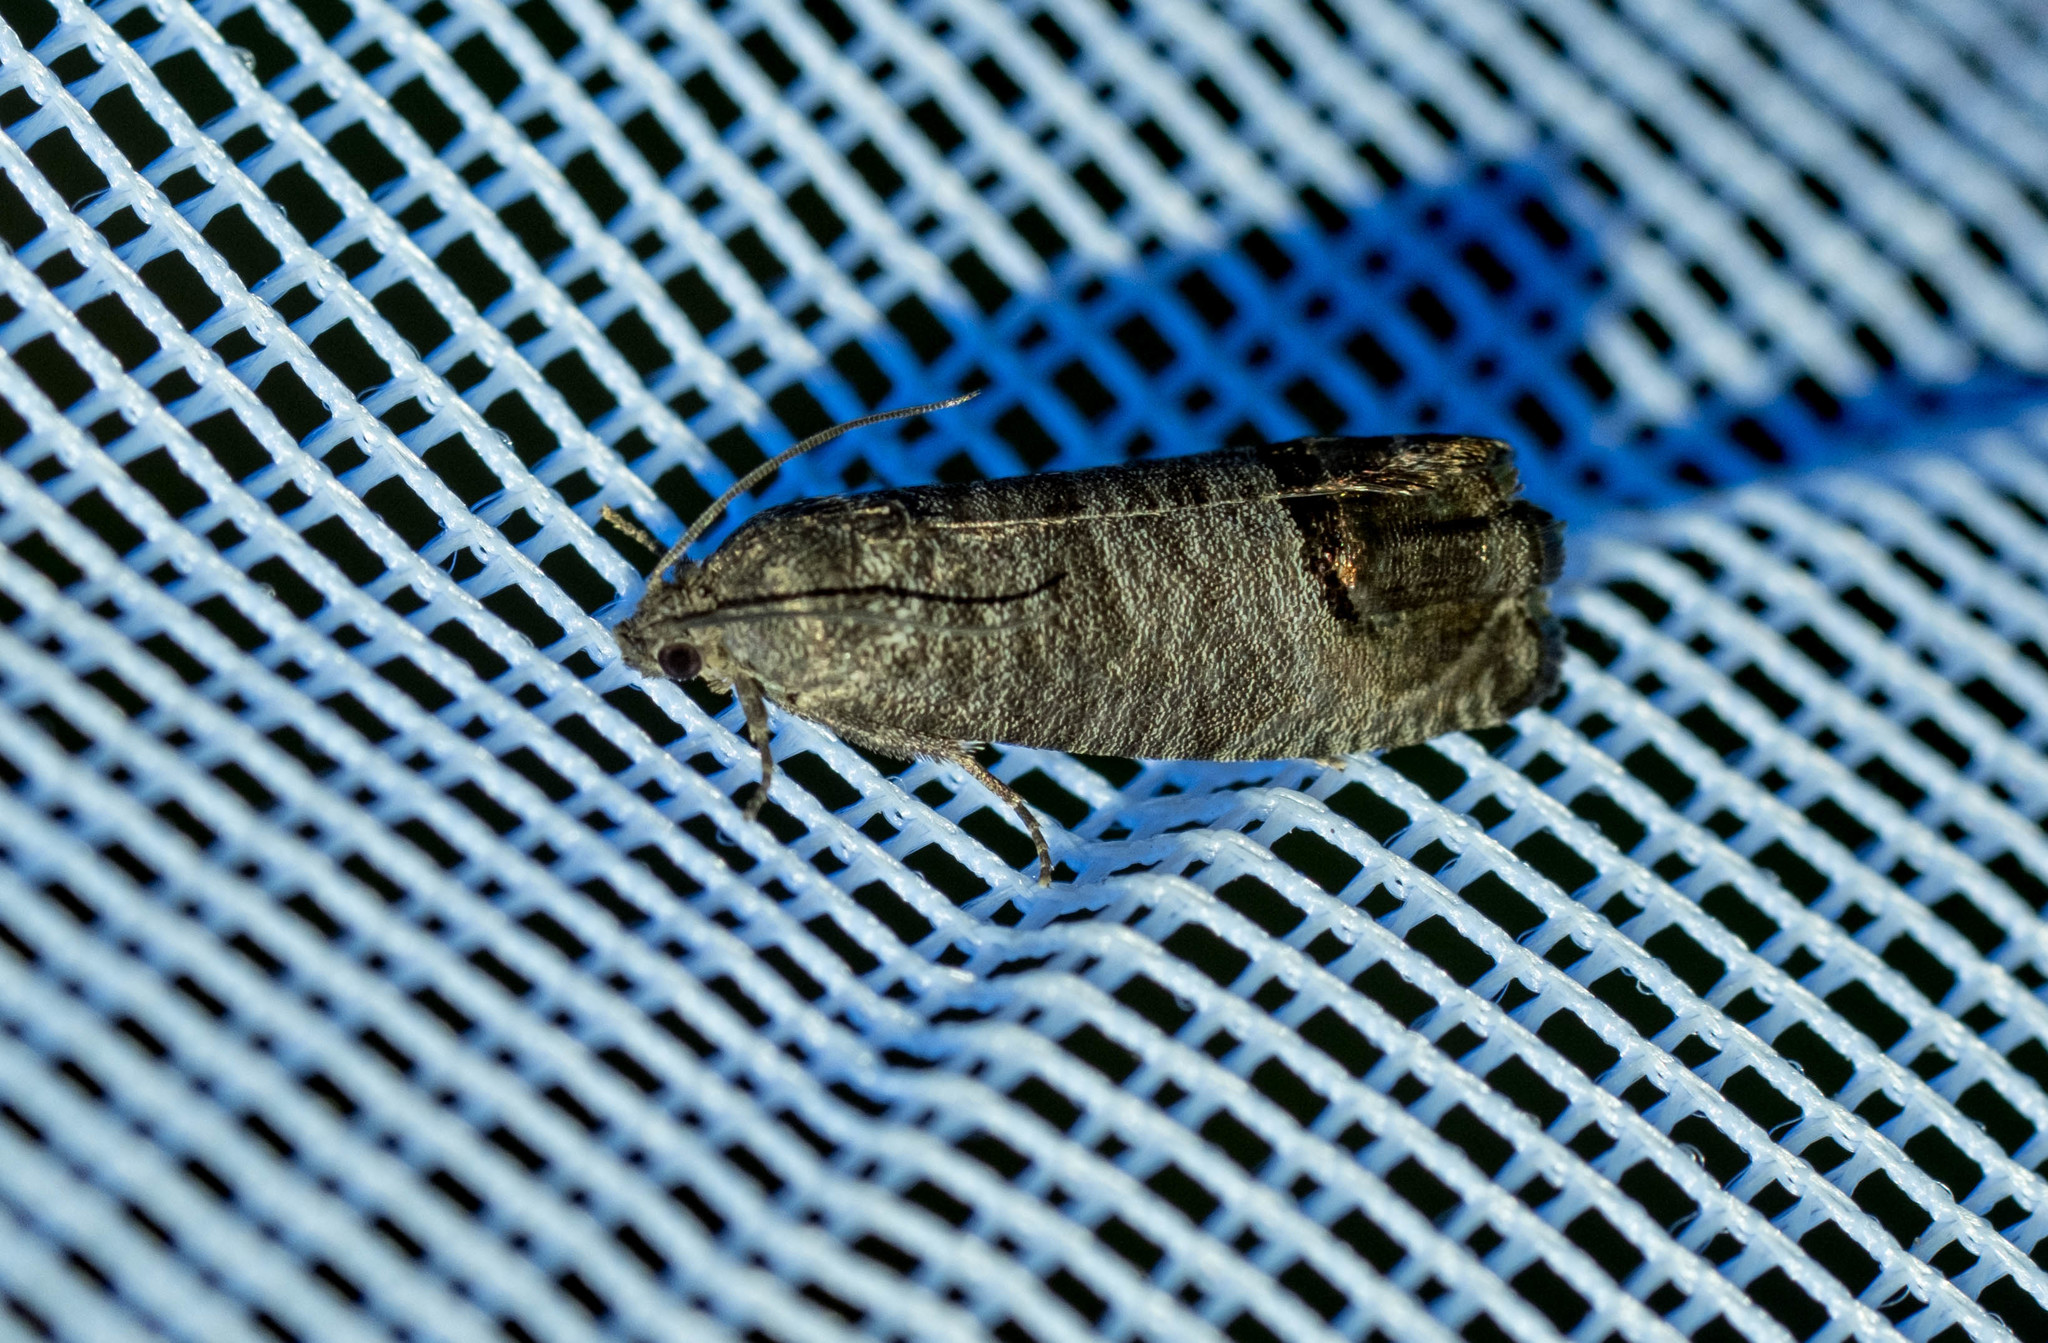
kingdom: Animalia
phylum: Arthropoda
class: Insecta
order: Lepidoptera
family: Tortricidae
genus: Cydia
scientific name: Cydia pomonella
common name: Codling moth
